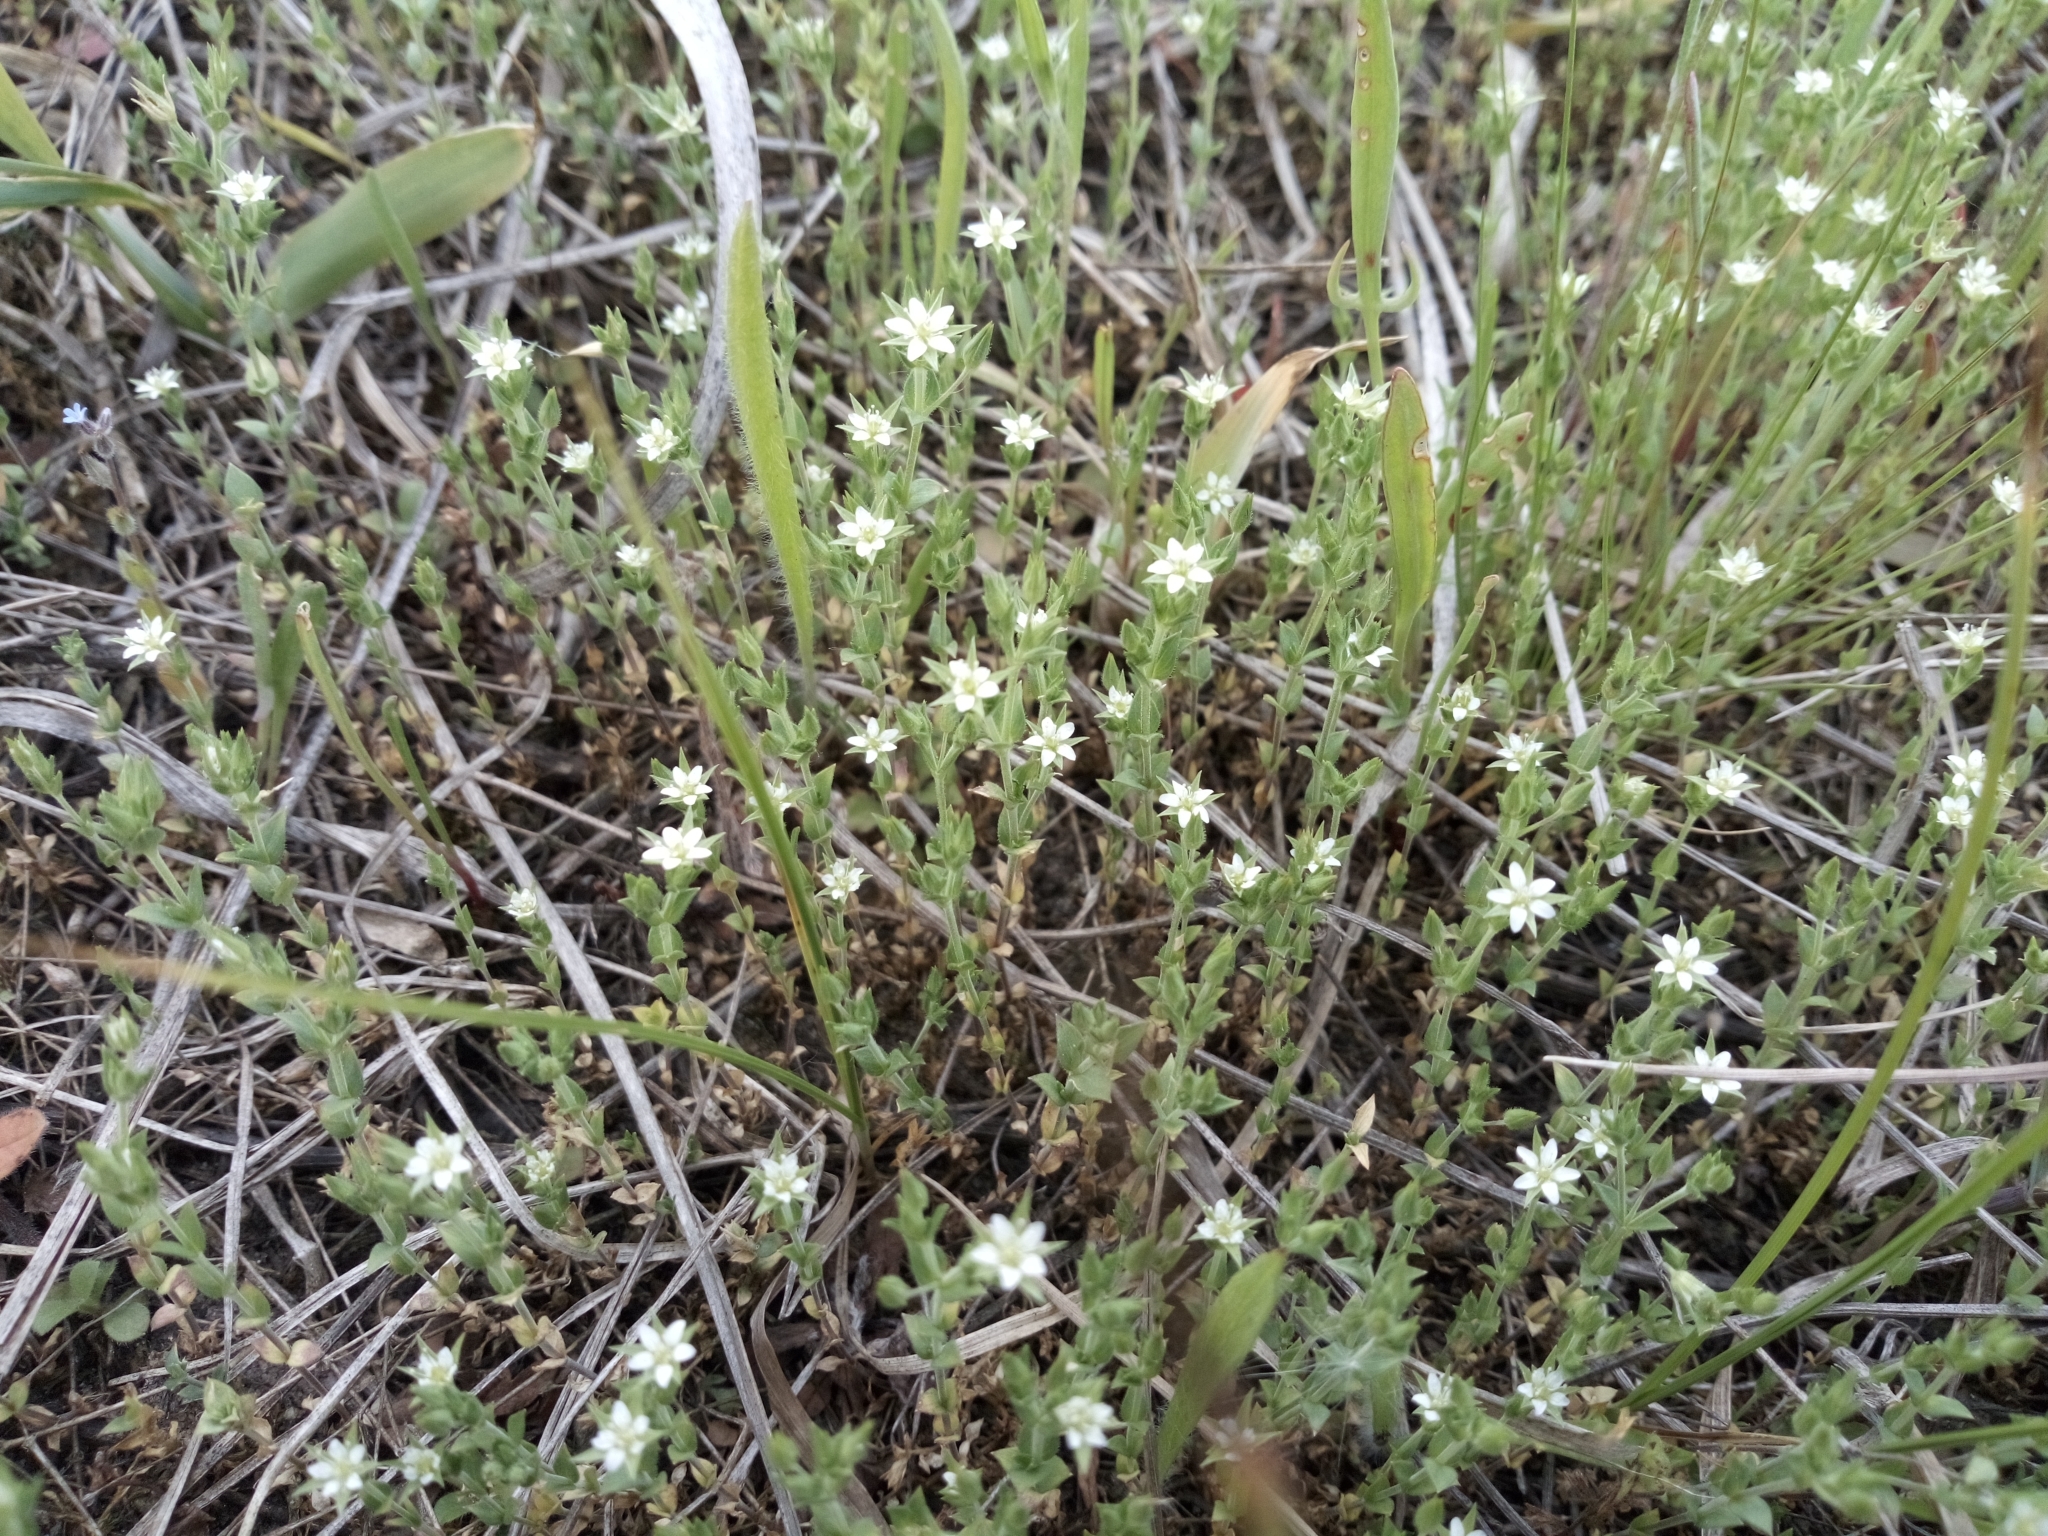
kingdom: Plantae
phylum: Tracheophyta
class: Magnoliopsida
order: Caryophyllales
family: Caryophyllaceae
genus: Arenaria
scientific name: Arenaria serpyllifolia
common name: Thyme-leaved sandwort
